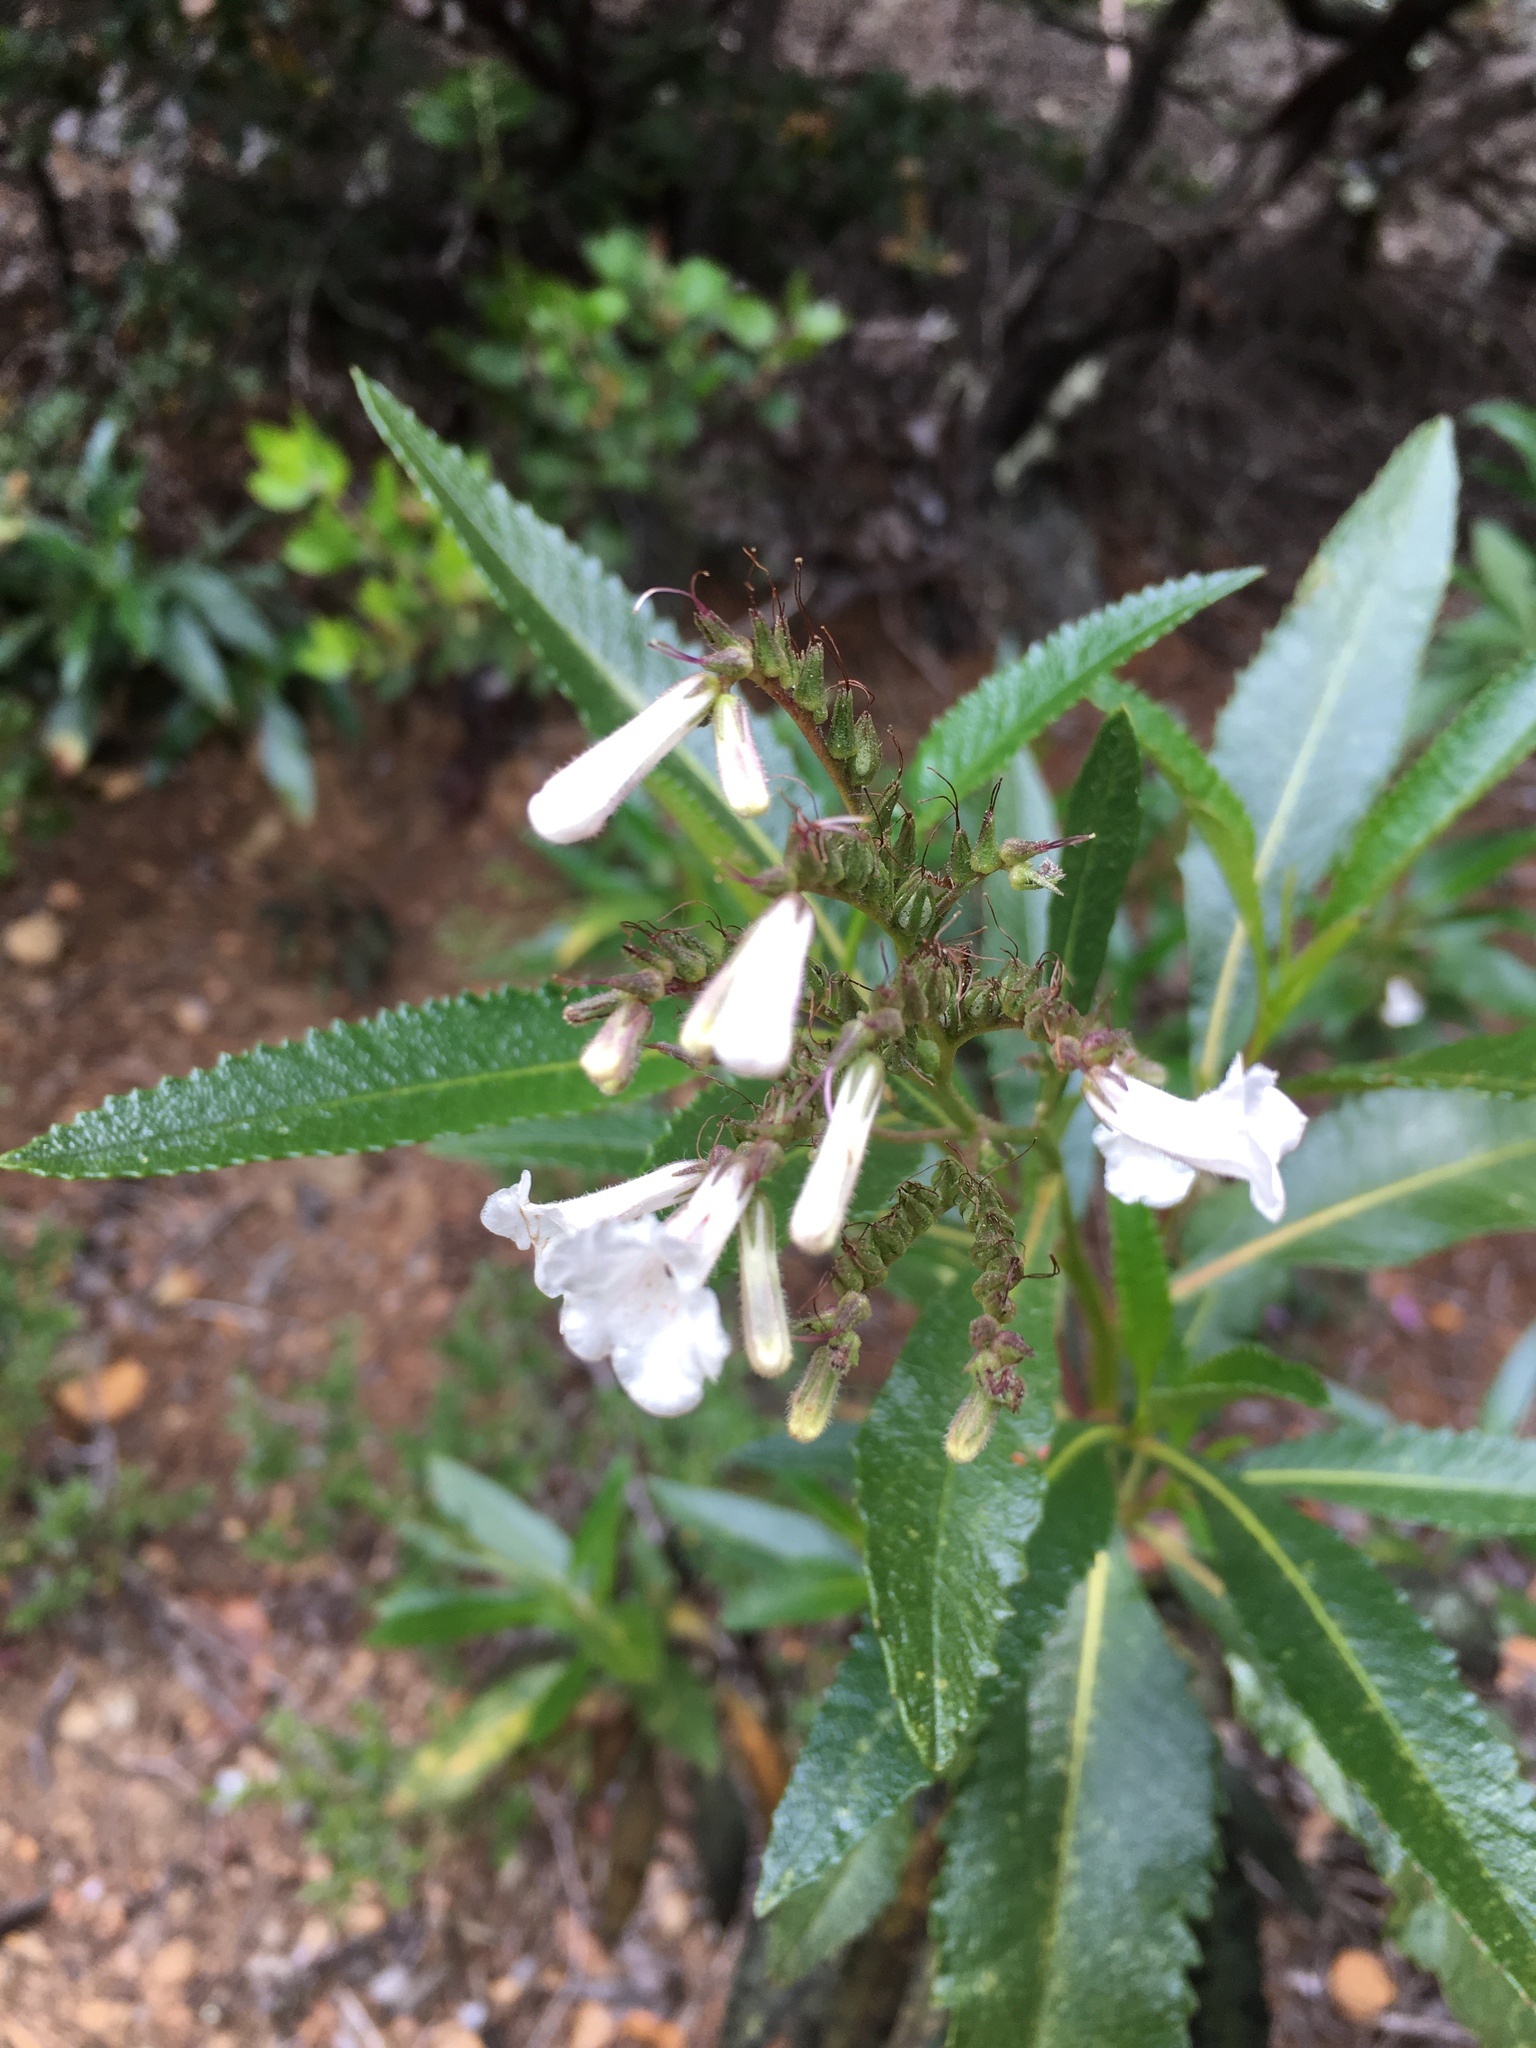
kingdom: Plantae
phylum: Tracheophyta
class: Magnoliopsida
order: Boraginales
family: Namaceae
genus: Eriodictyon
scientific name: Eriodictyon californicum
